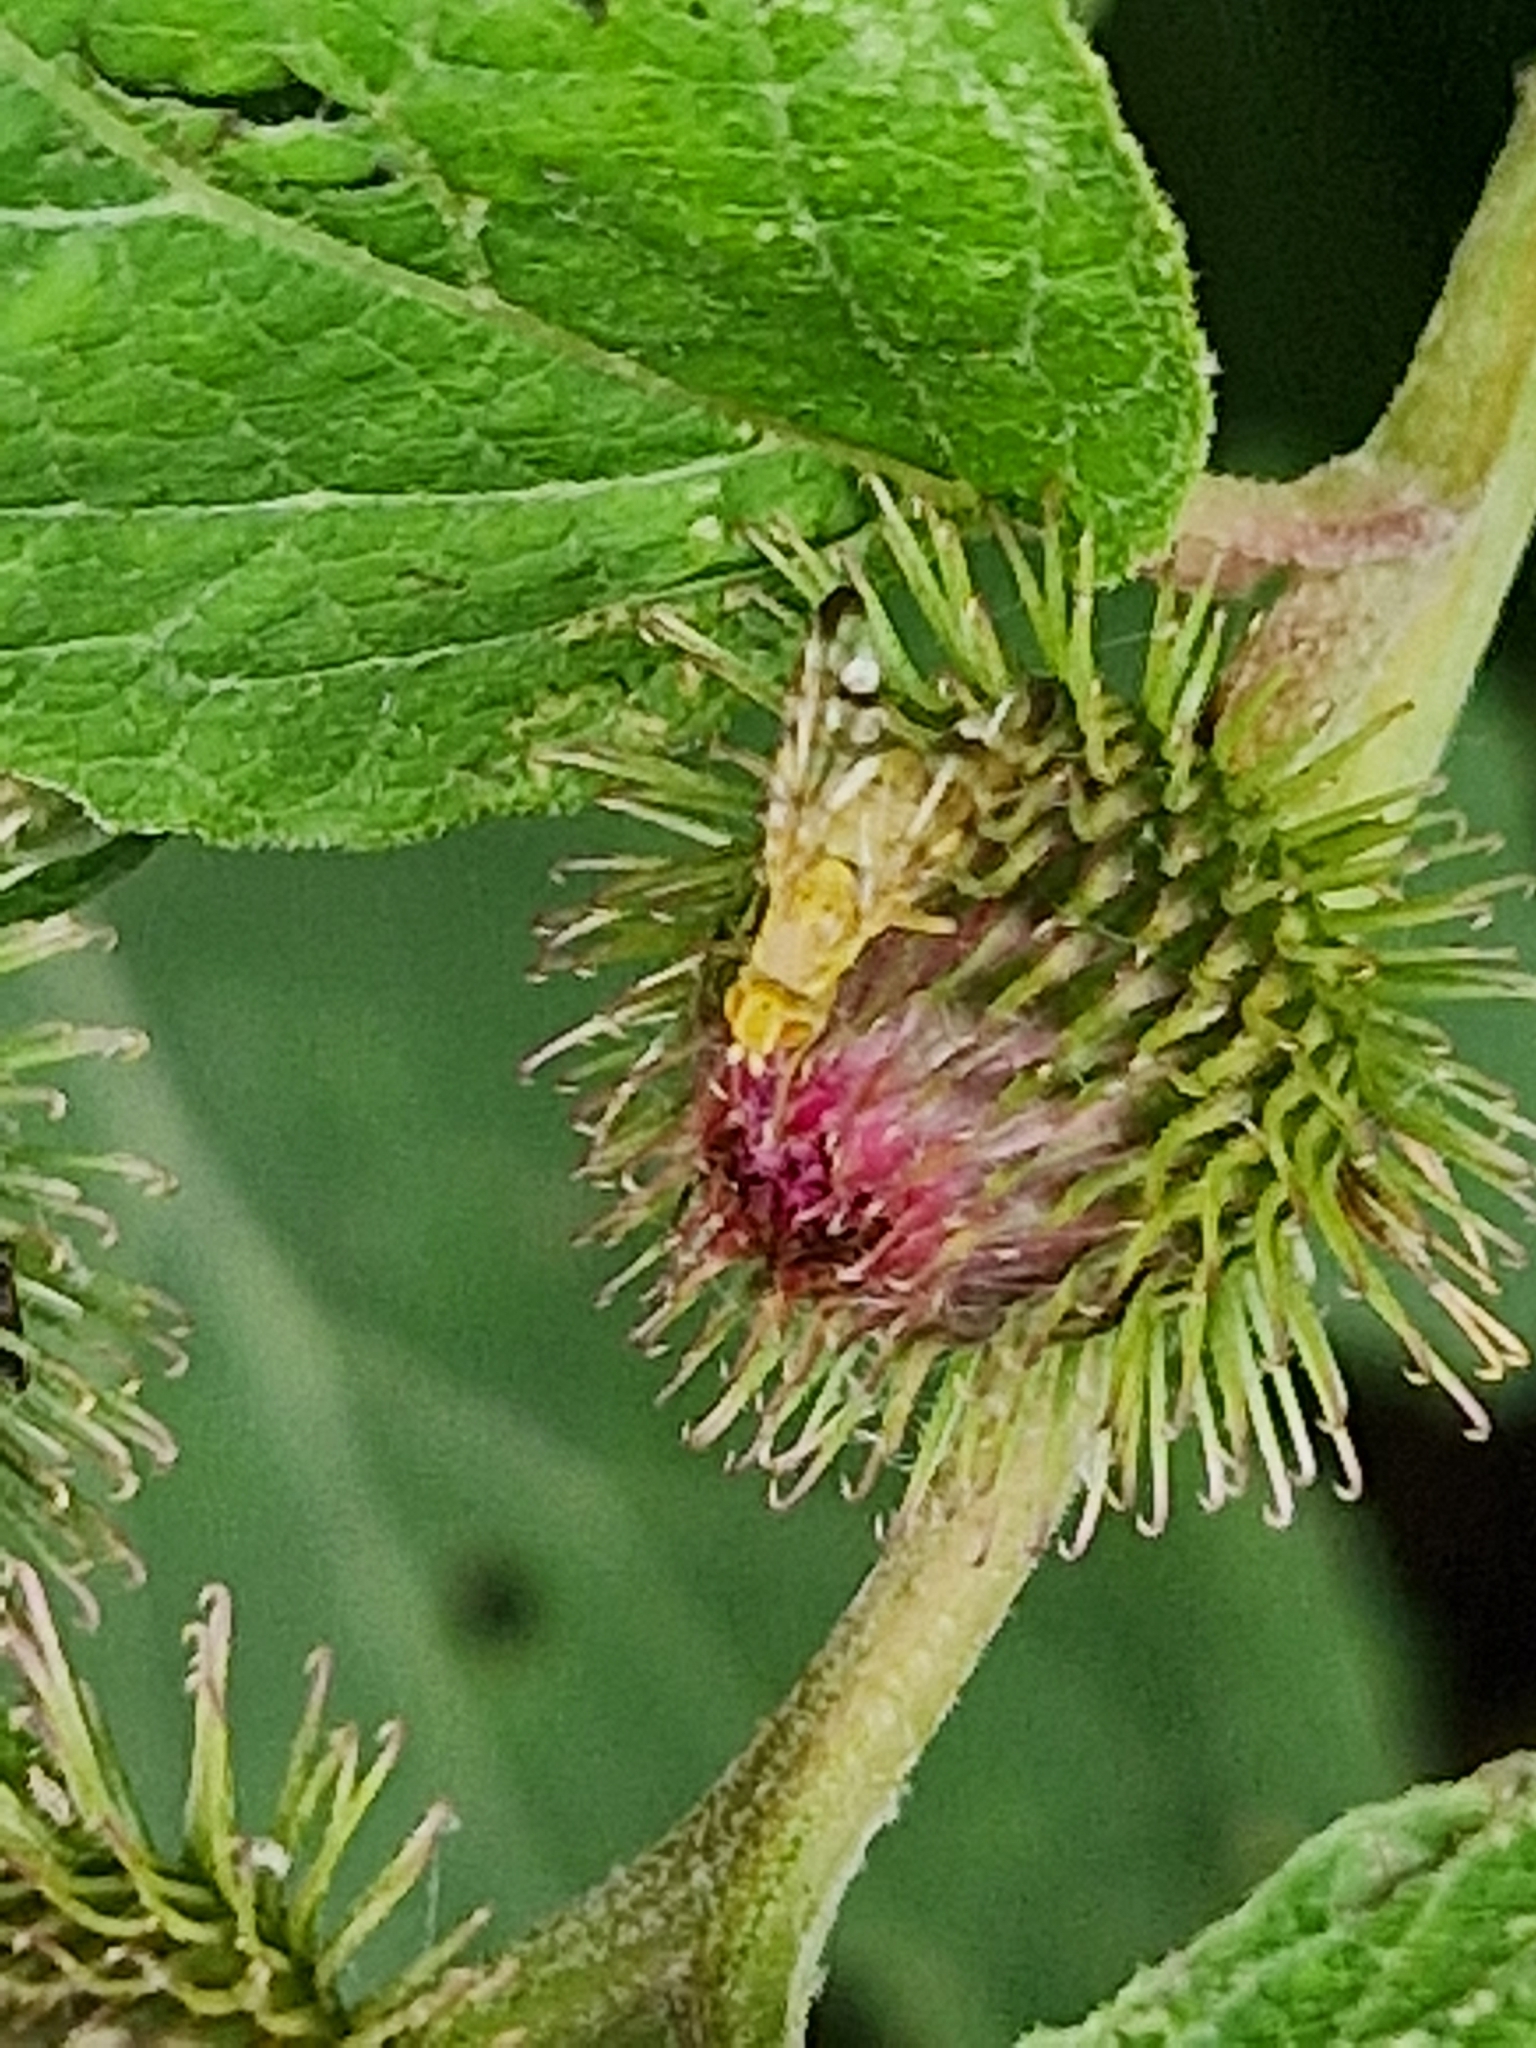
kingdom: Animalia
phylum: Arthropoda
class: Insecta
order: Diptera
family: Tephritidae
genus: Terellia
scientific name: Terellia tussilaginis
